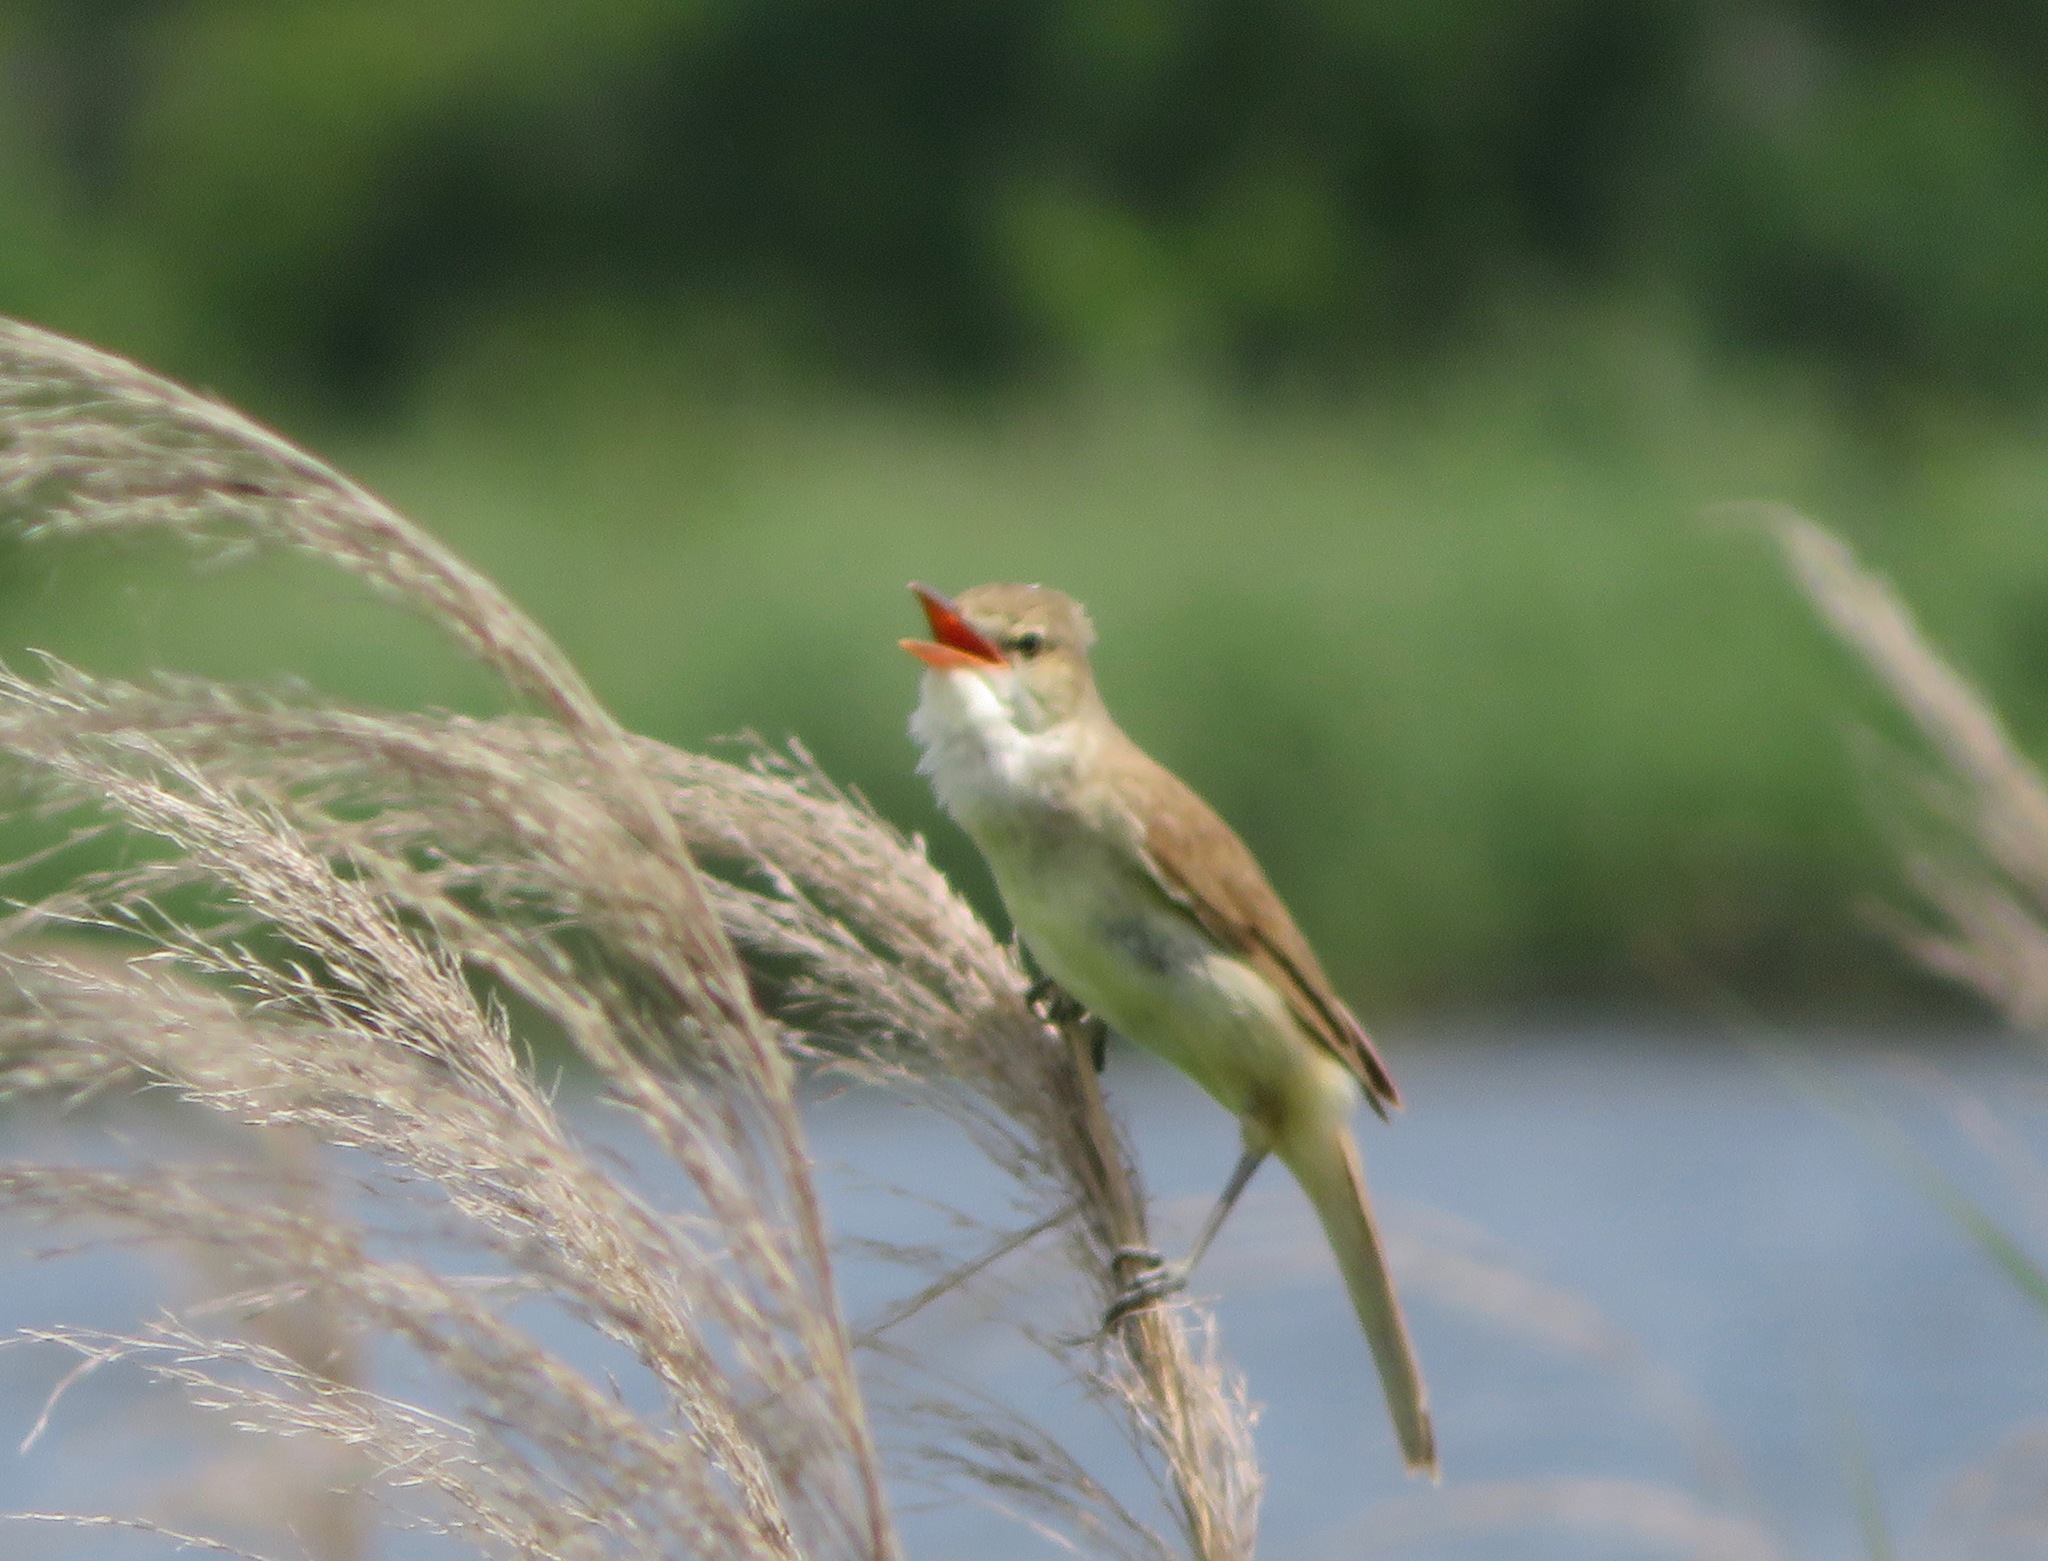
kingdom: Animalia
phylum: Chordata
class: Aves
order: Passeriformes
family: Acrocephalidae
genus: Acrocephalus
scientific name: Acrocephalus orientalis
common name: Oriental reed warbler
